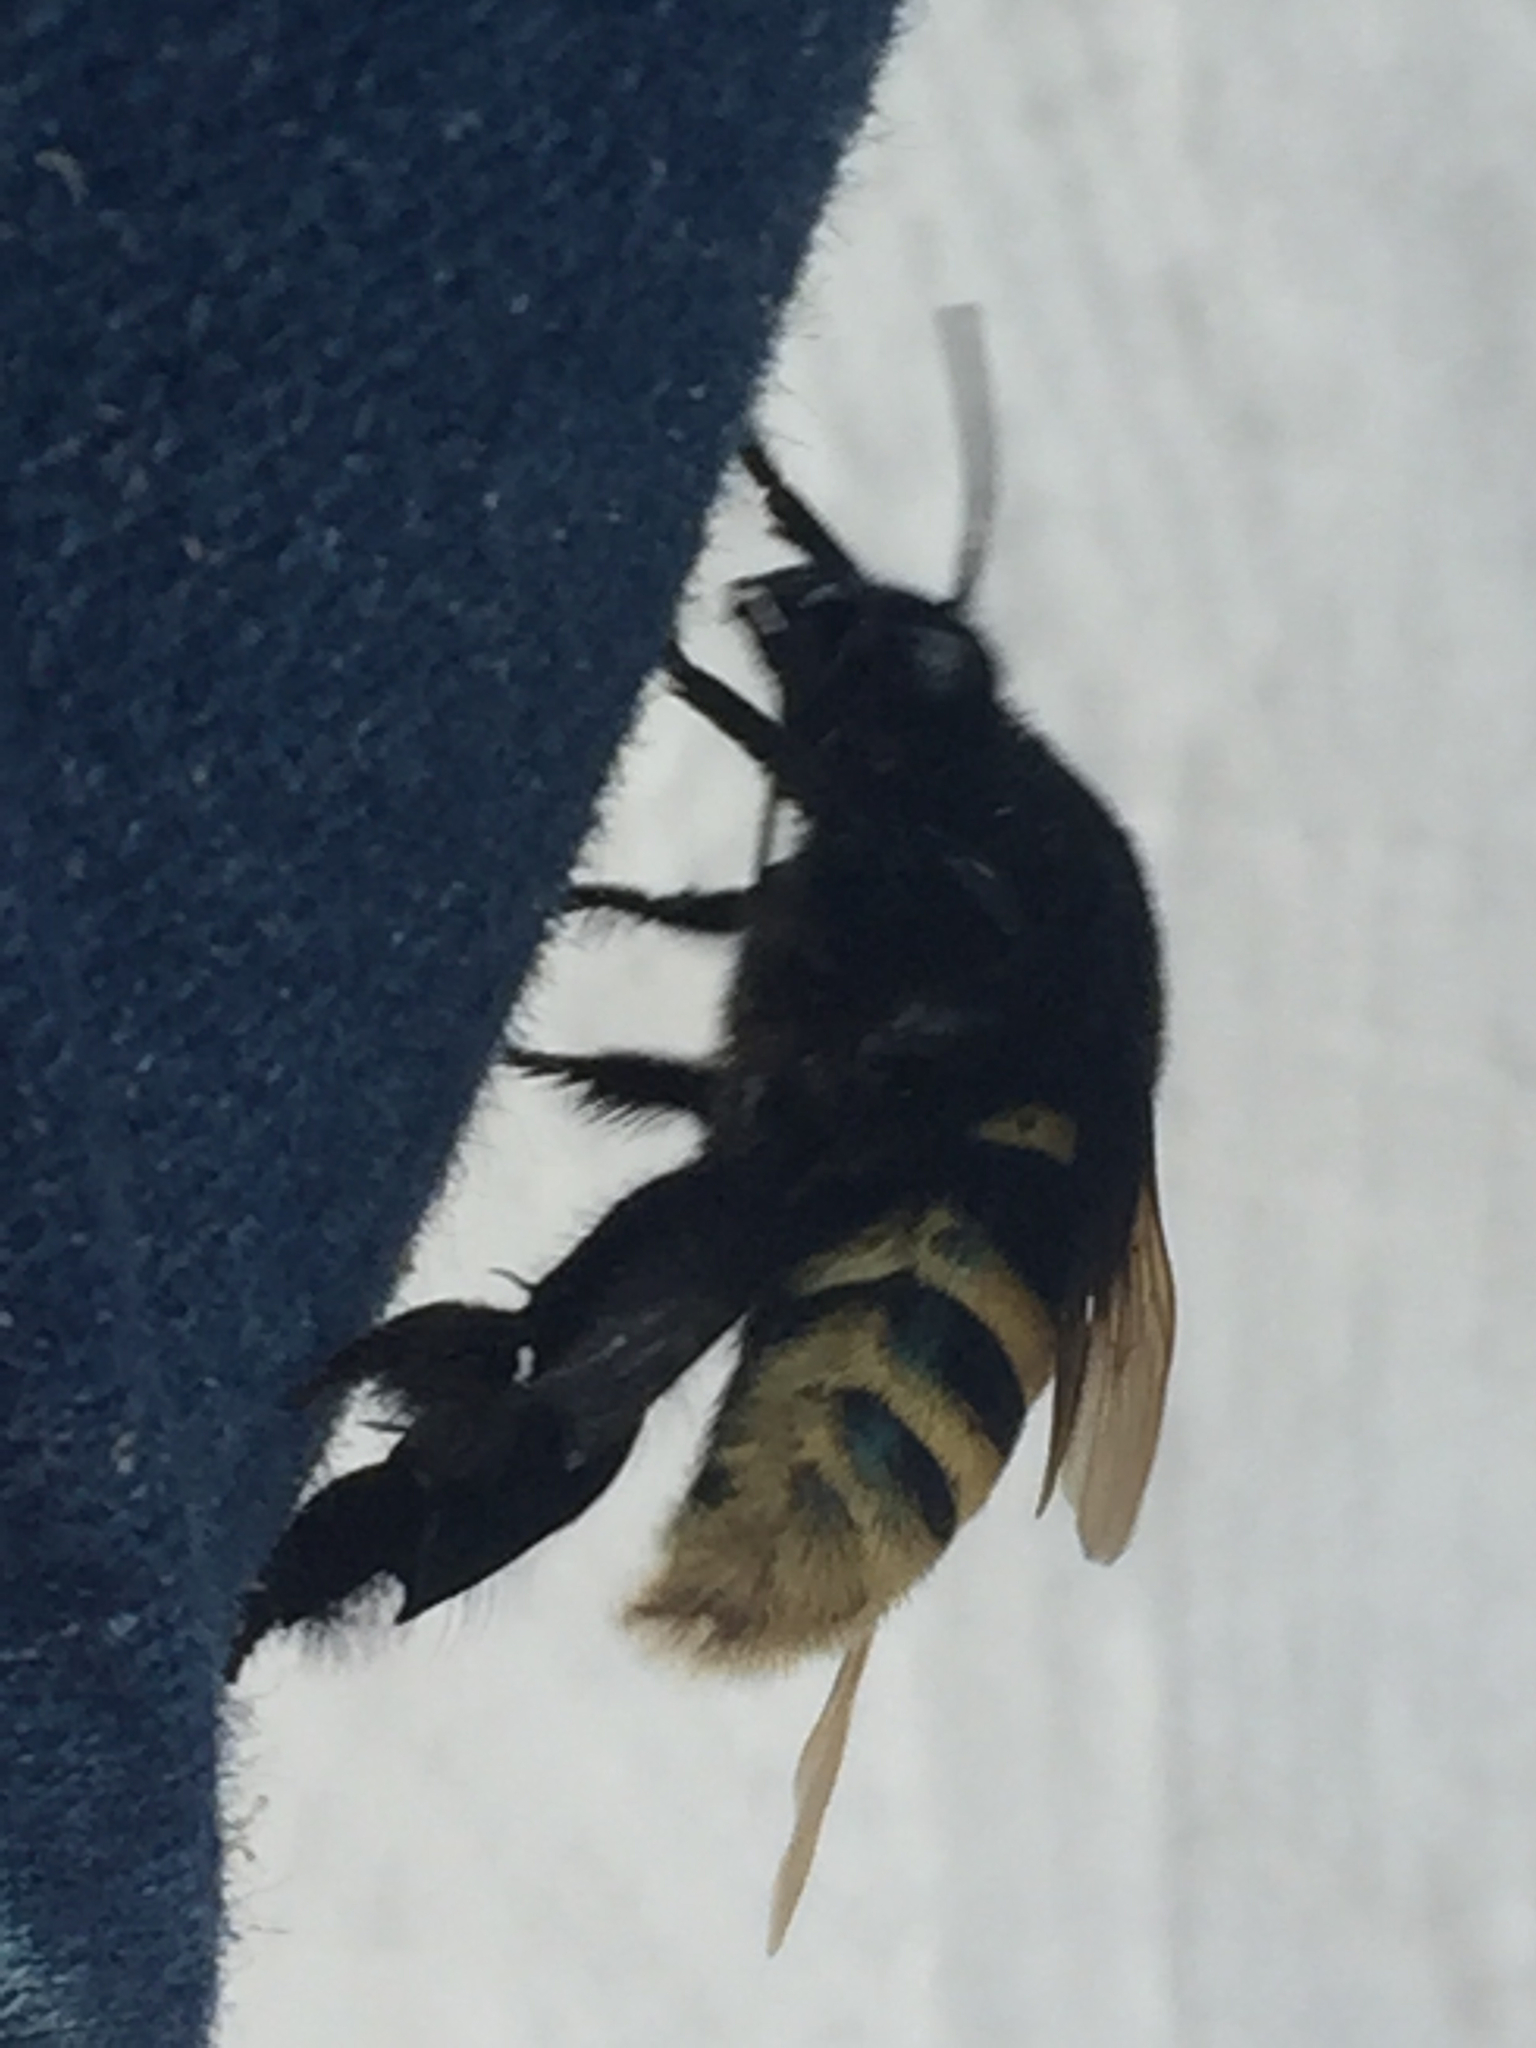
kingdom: Animalia
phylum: Arthropoda
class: Insecta
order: Hymenoptera
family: Apidae
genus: Eulaema
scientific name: Eulaema meriana
